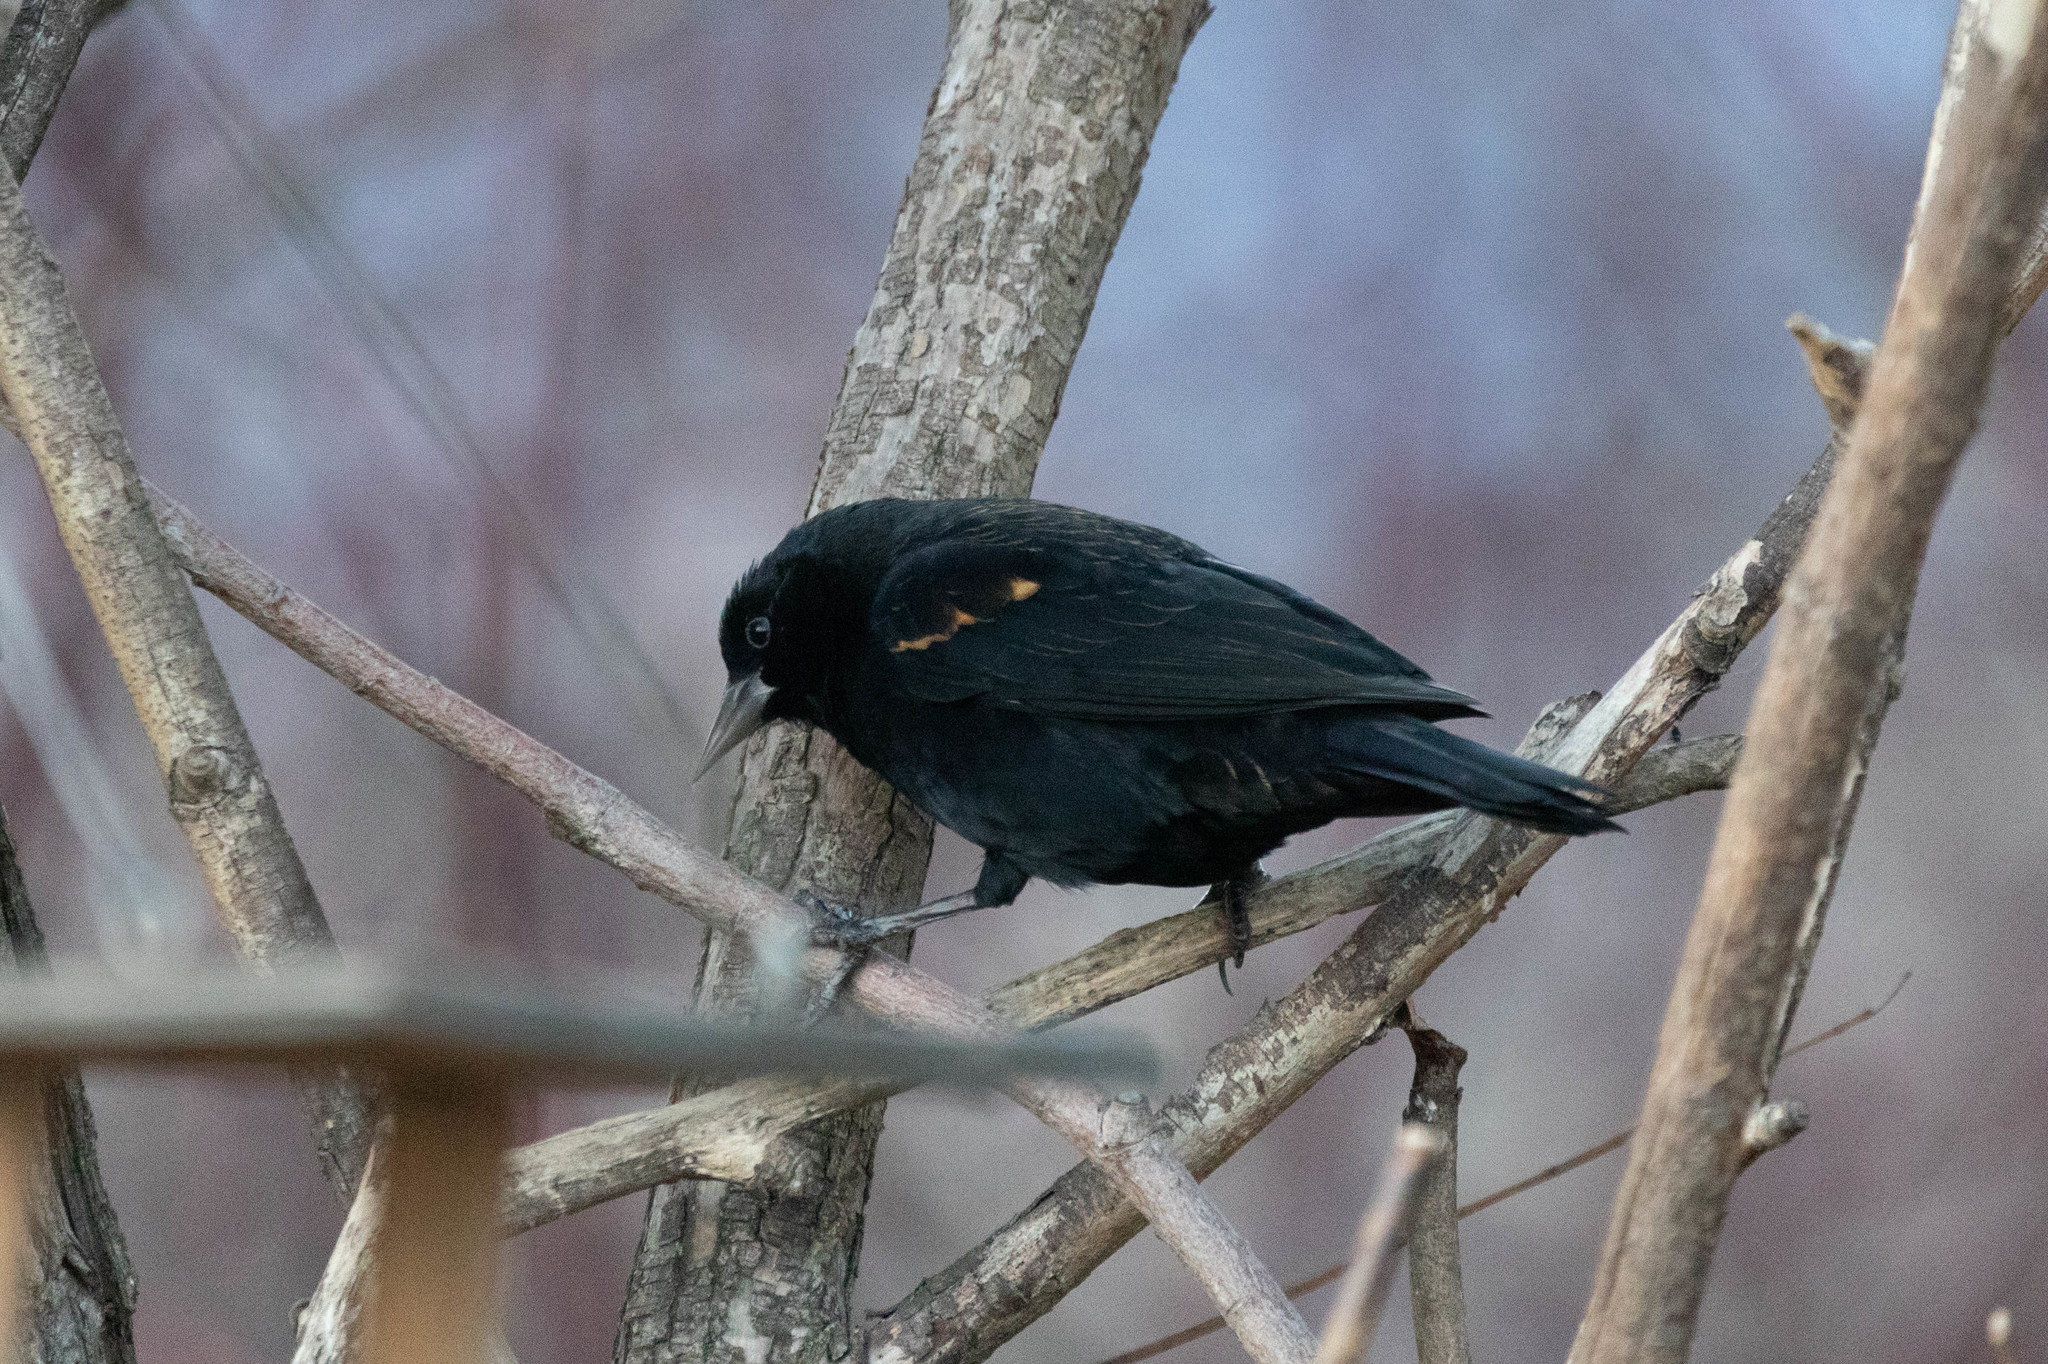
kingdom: Animalia
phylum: Chordata
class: Aves
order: Passeriformes
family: Icteridae
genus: Agelaius
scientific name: Agelaius phoeniceus
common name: Red-winged blackbird
